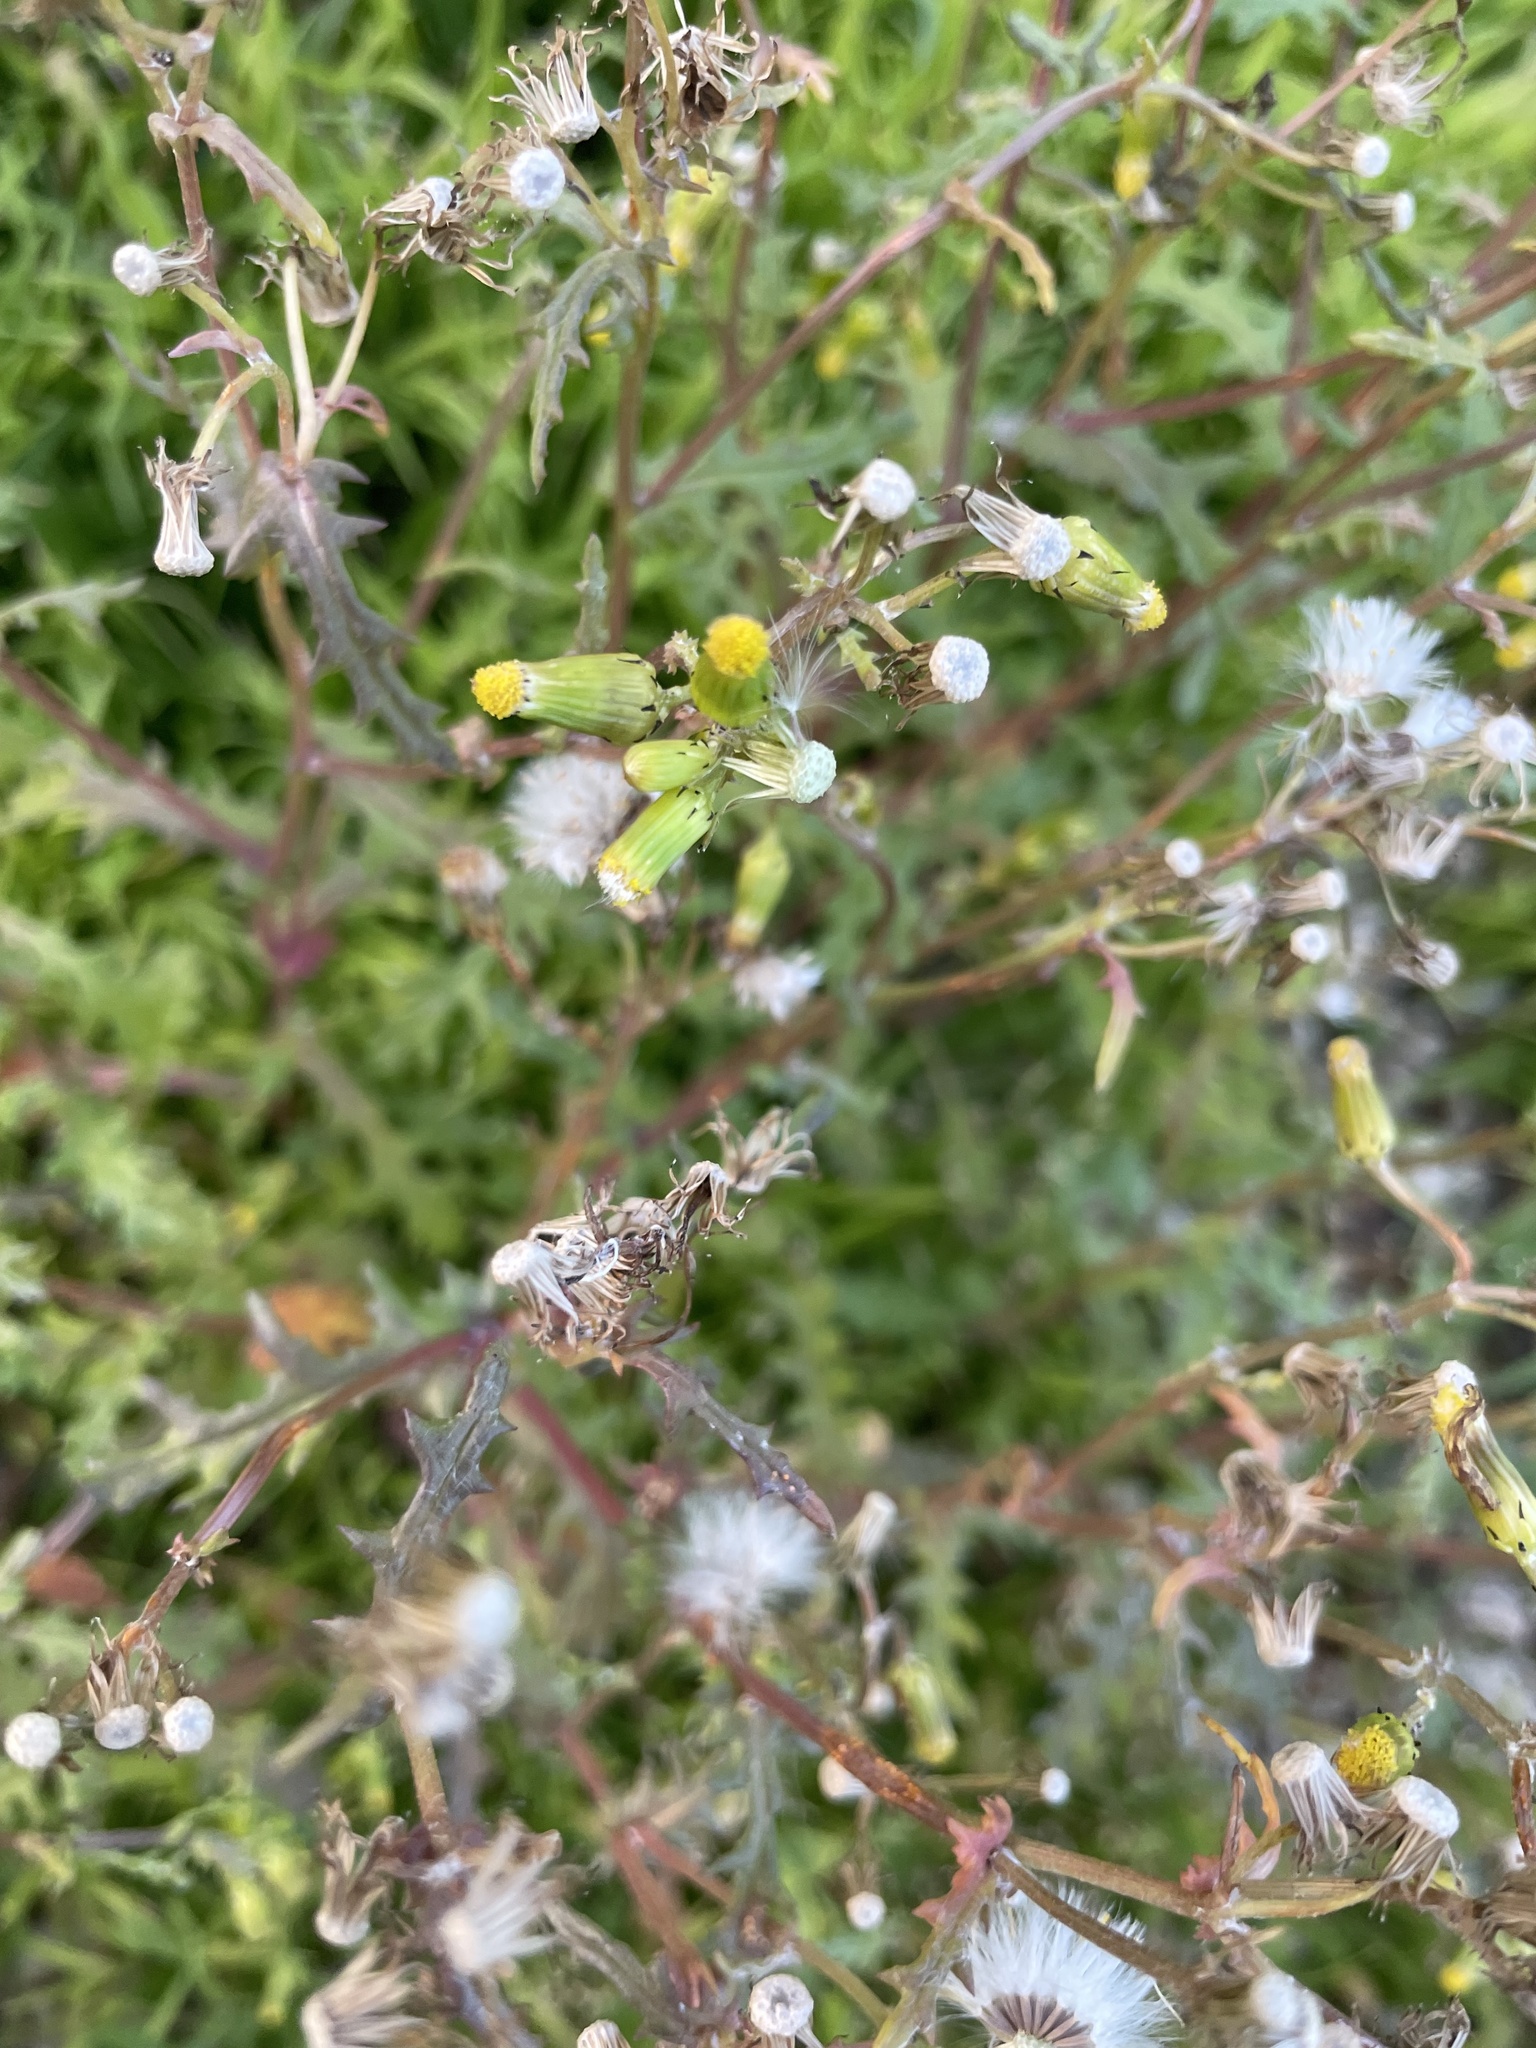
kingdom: Plantae
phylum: Tracheophyta
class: Magnoliopsida
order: Asterales
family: Asteraceae
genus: Senecio
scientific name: Senecio vulgaris
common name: Old-man-in-the-spring
